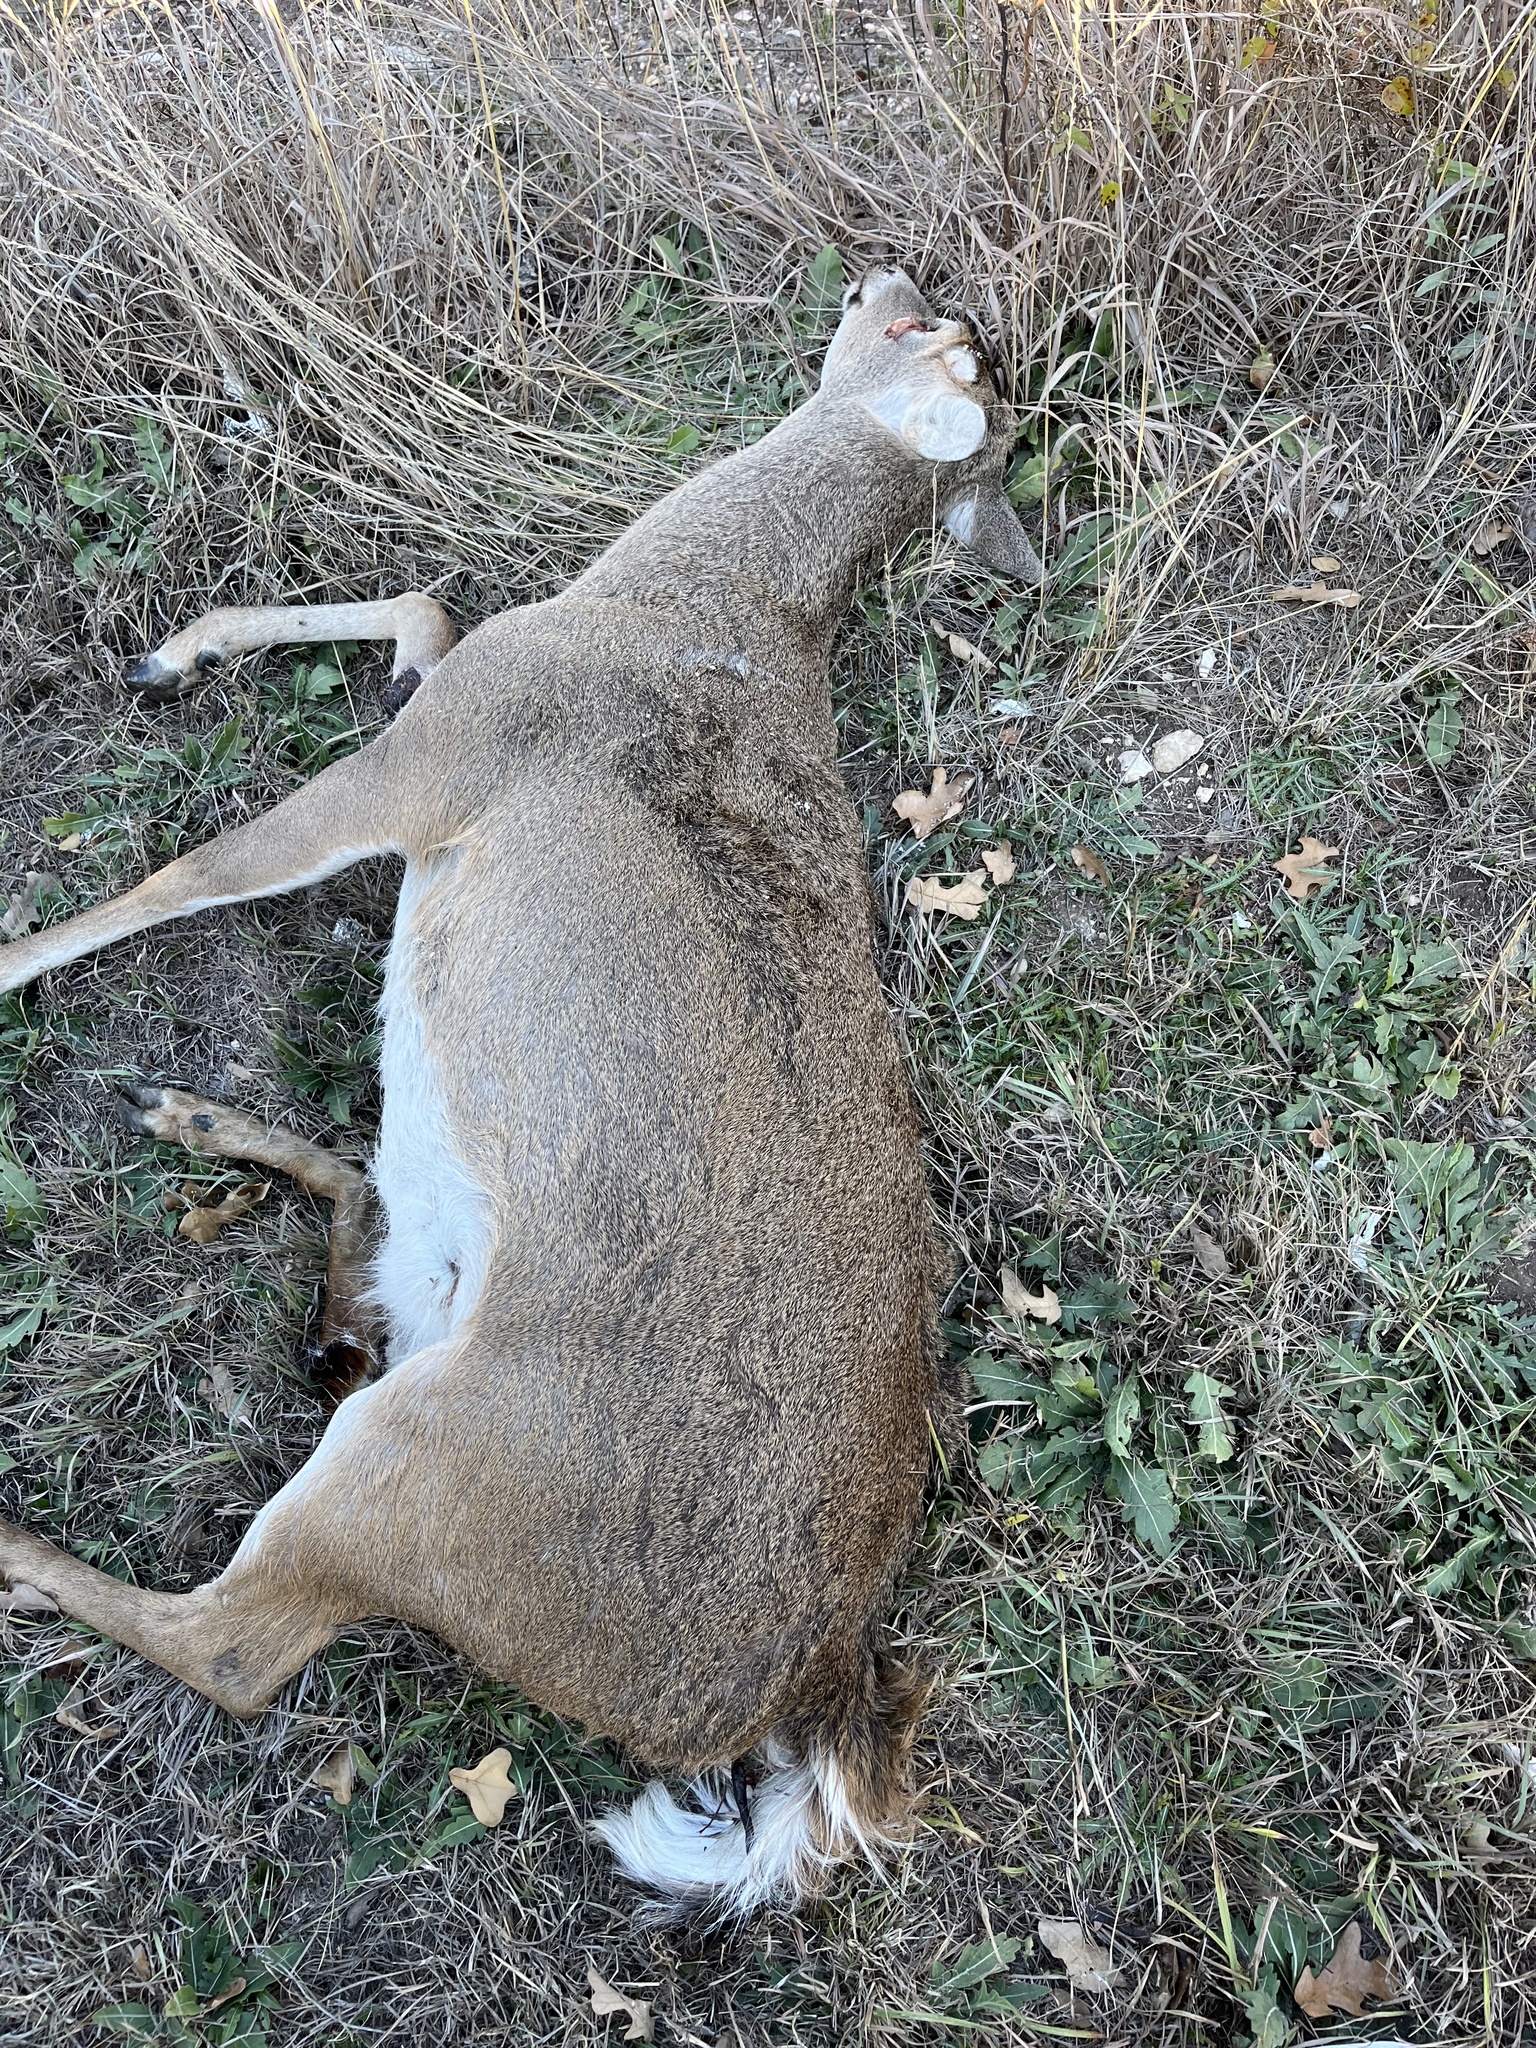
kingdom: Animalia
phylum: Chordata
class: Mammalia
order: Artiodactyla
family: Cervidae
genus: Odocoileus
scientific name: Odocoileus virginianus
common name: White-tailed deer
